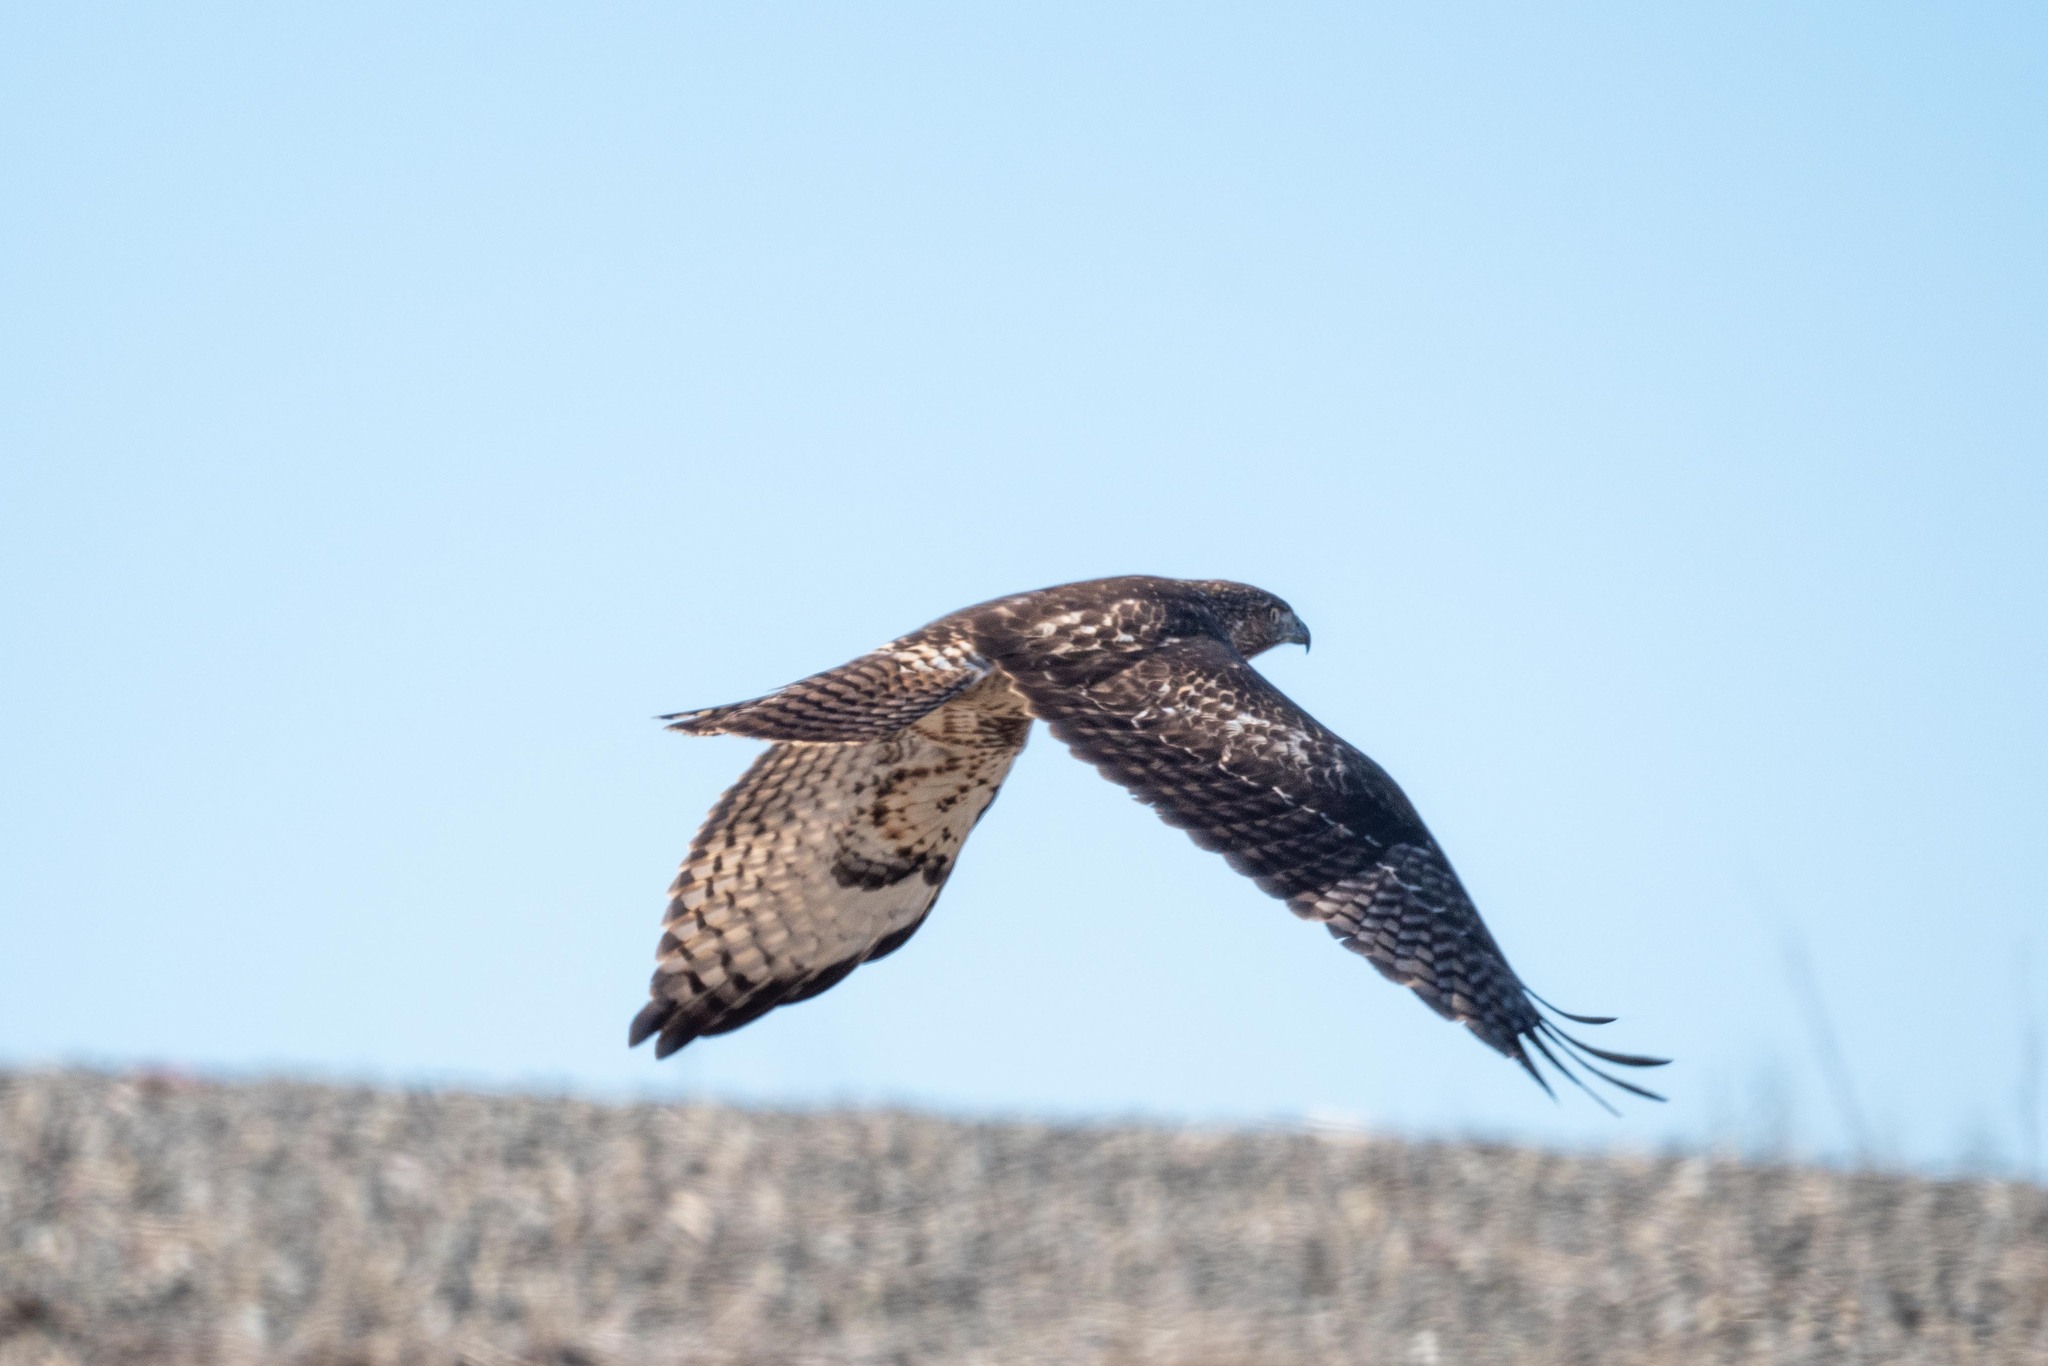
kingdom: Animalia
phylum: Chordata
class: Aves
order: Accipitriformes
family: Accipitridae
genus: Buteo
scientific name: Buteo jamaicensis
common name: Red-tailed hawk
